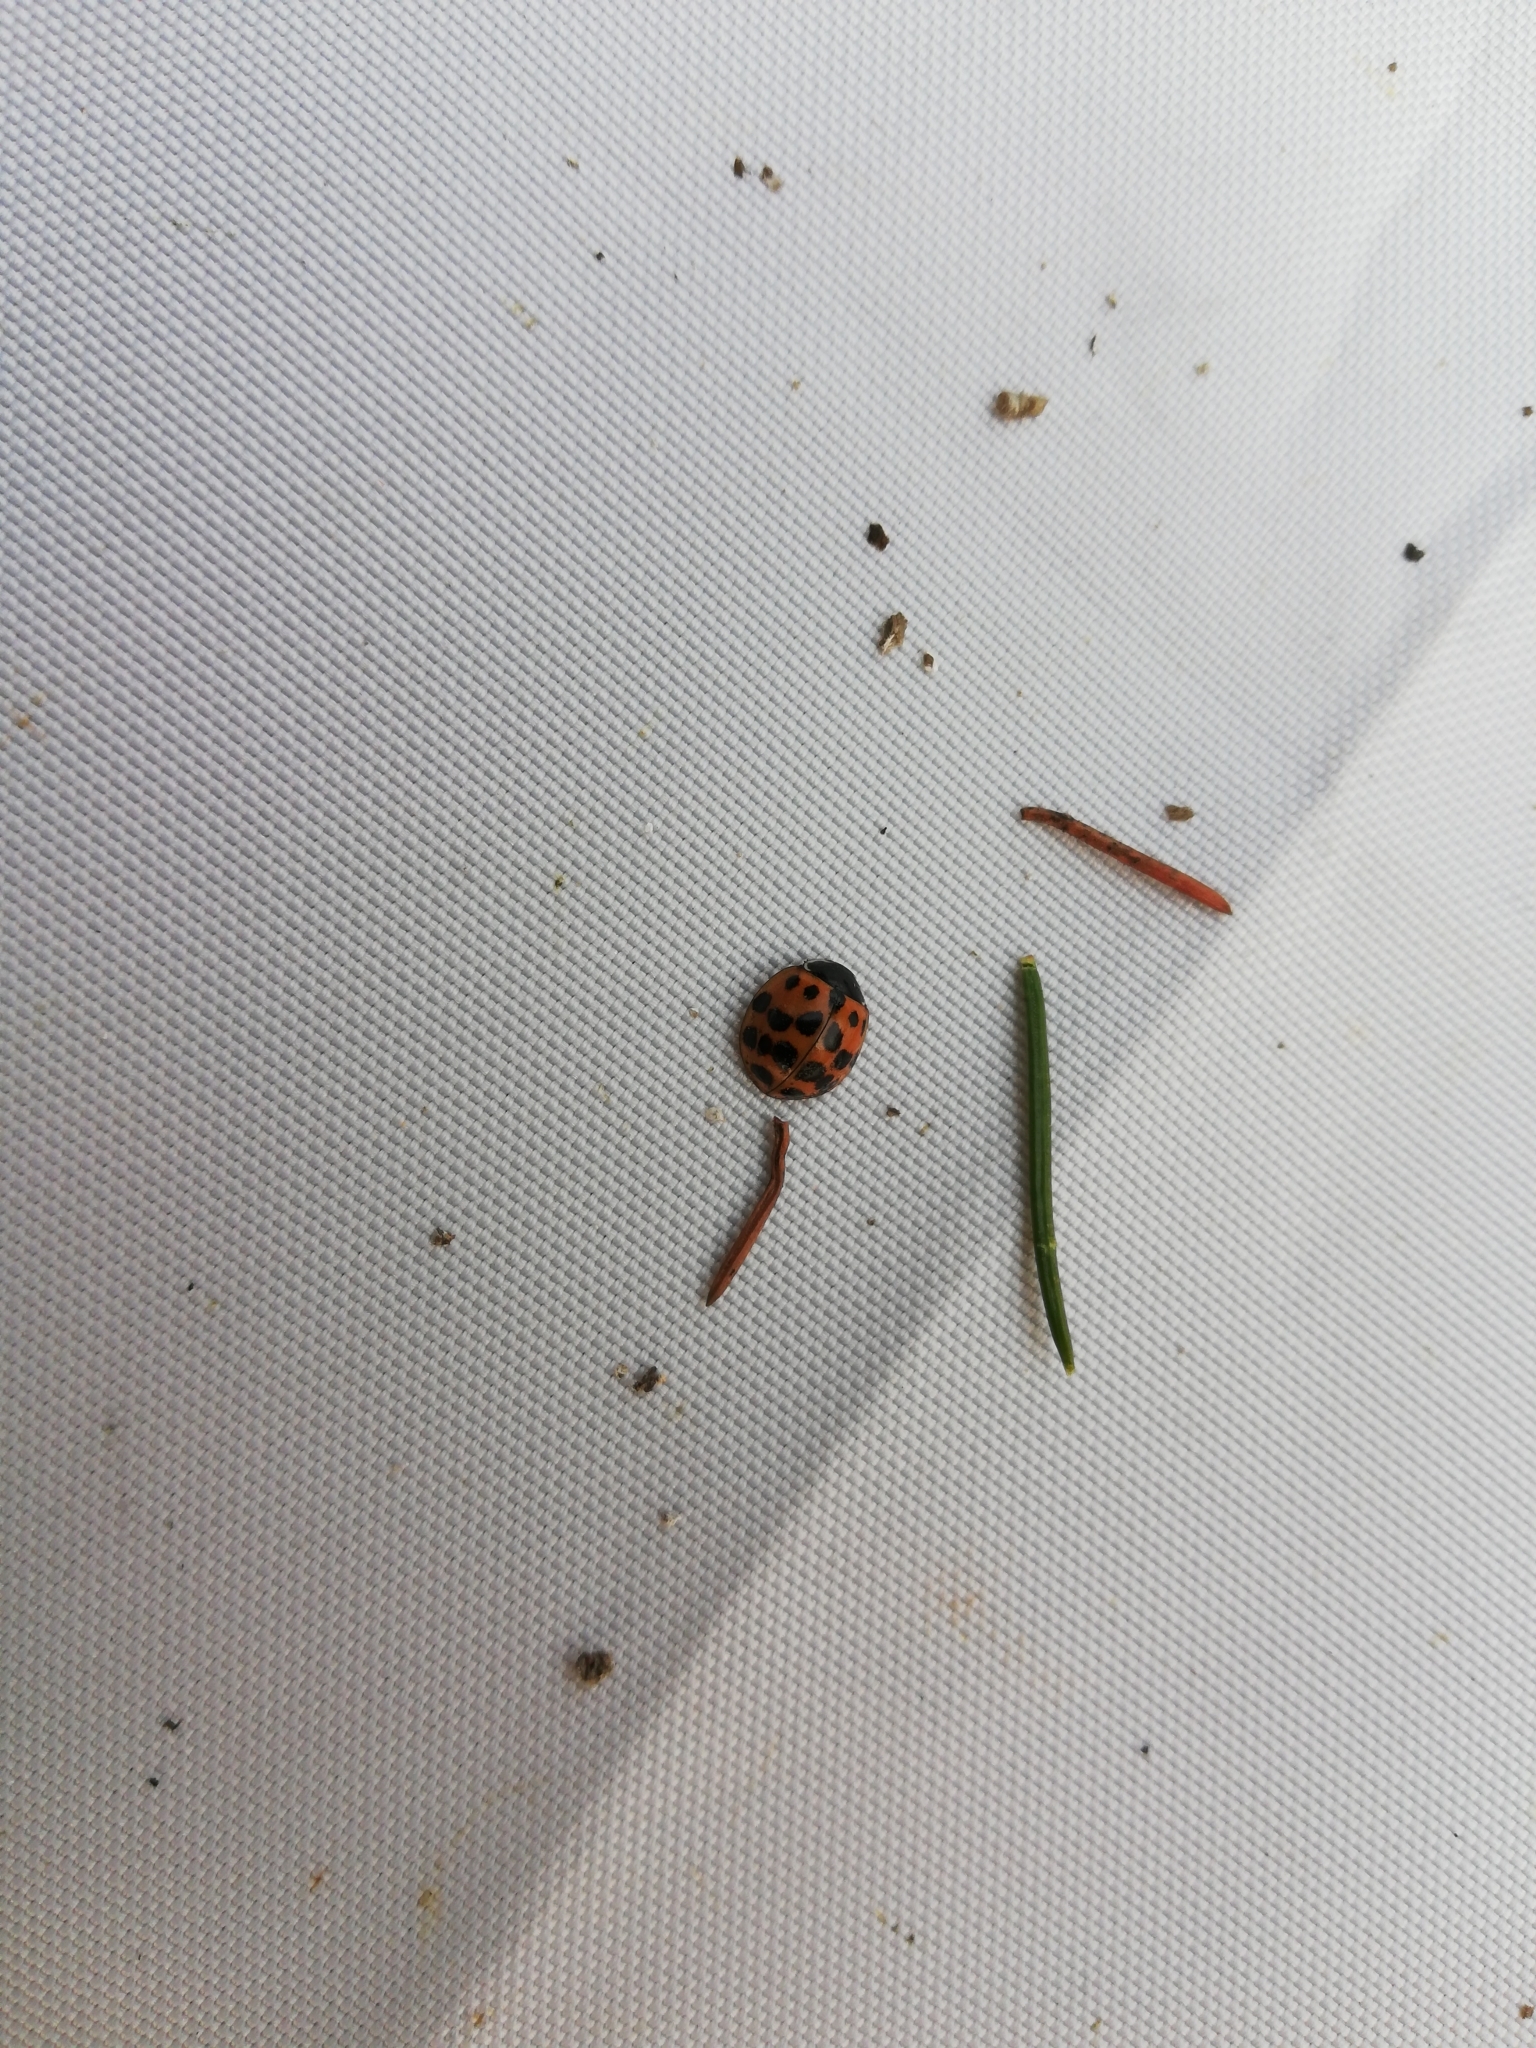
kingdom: Animalia
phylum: Arthropoda
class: Insecta
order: Coleoptera
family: Coccinellidae
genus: Harmonia
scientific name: Harmonia axyridis
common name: Harlequin ladybird
